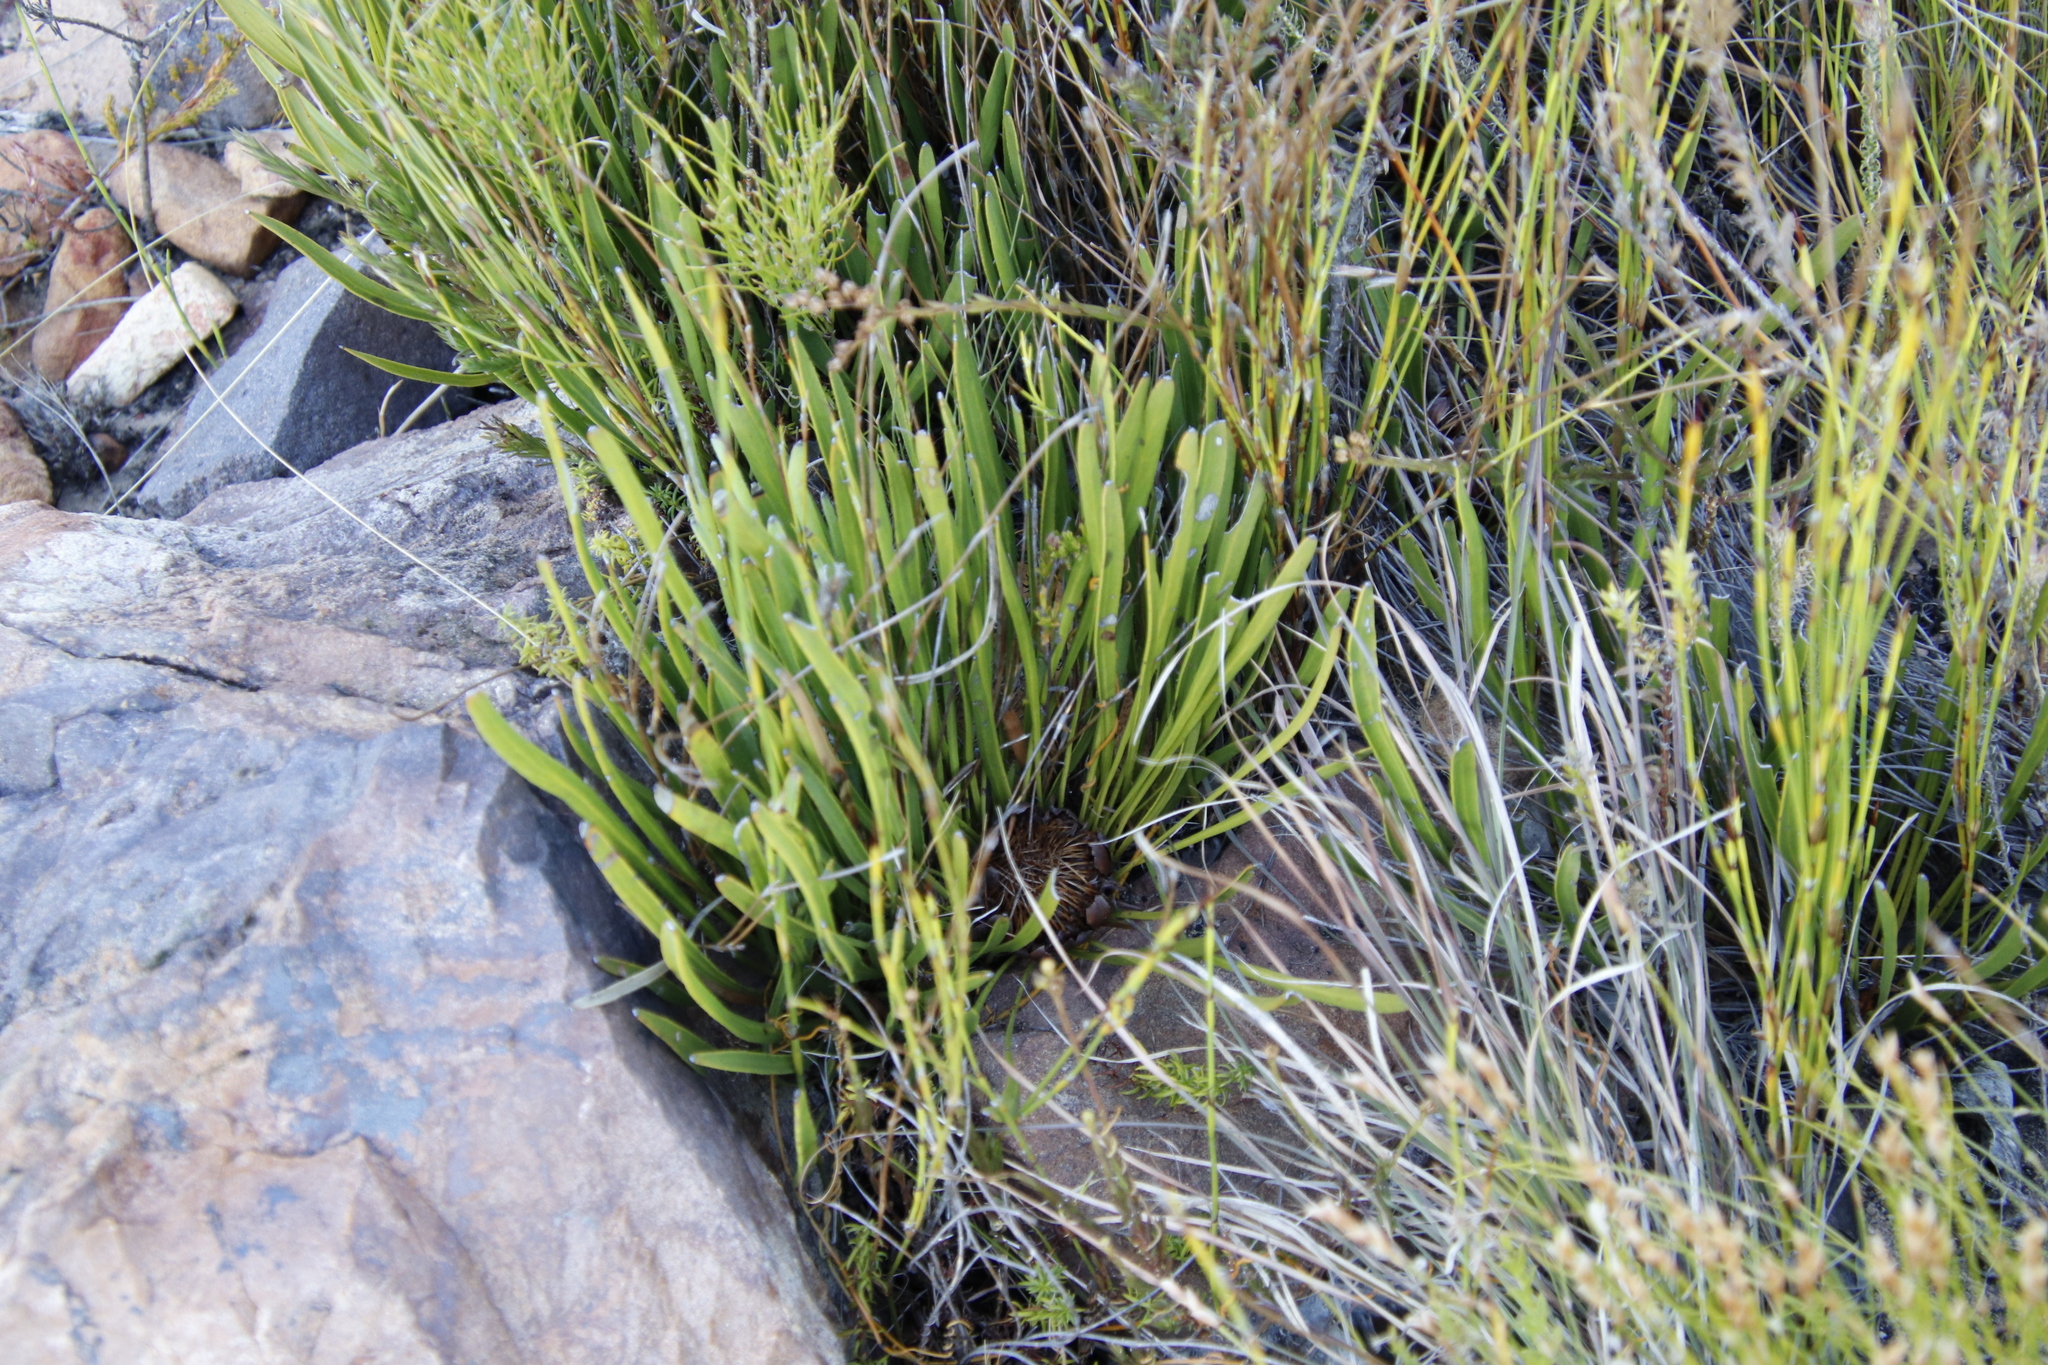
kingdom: Plantae
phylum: Tracheophyta
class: Magnoliopsida
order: Proteales
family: Proteaceae
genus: Protea
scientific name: Protea scabra
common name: Sandpaper-leaf sugarbush
